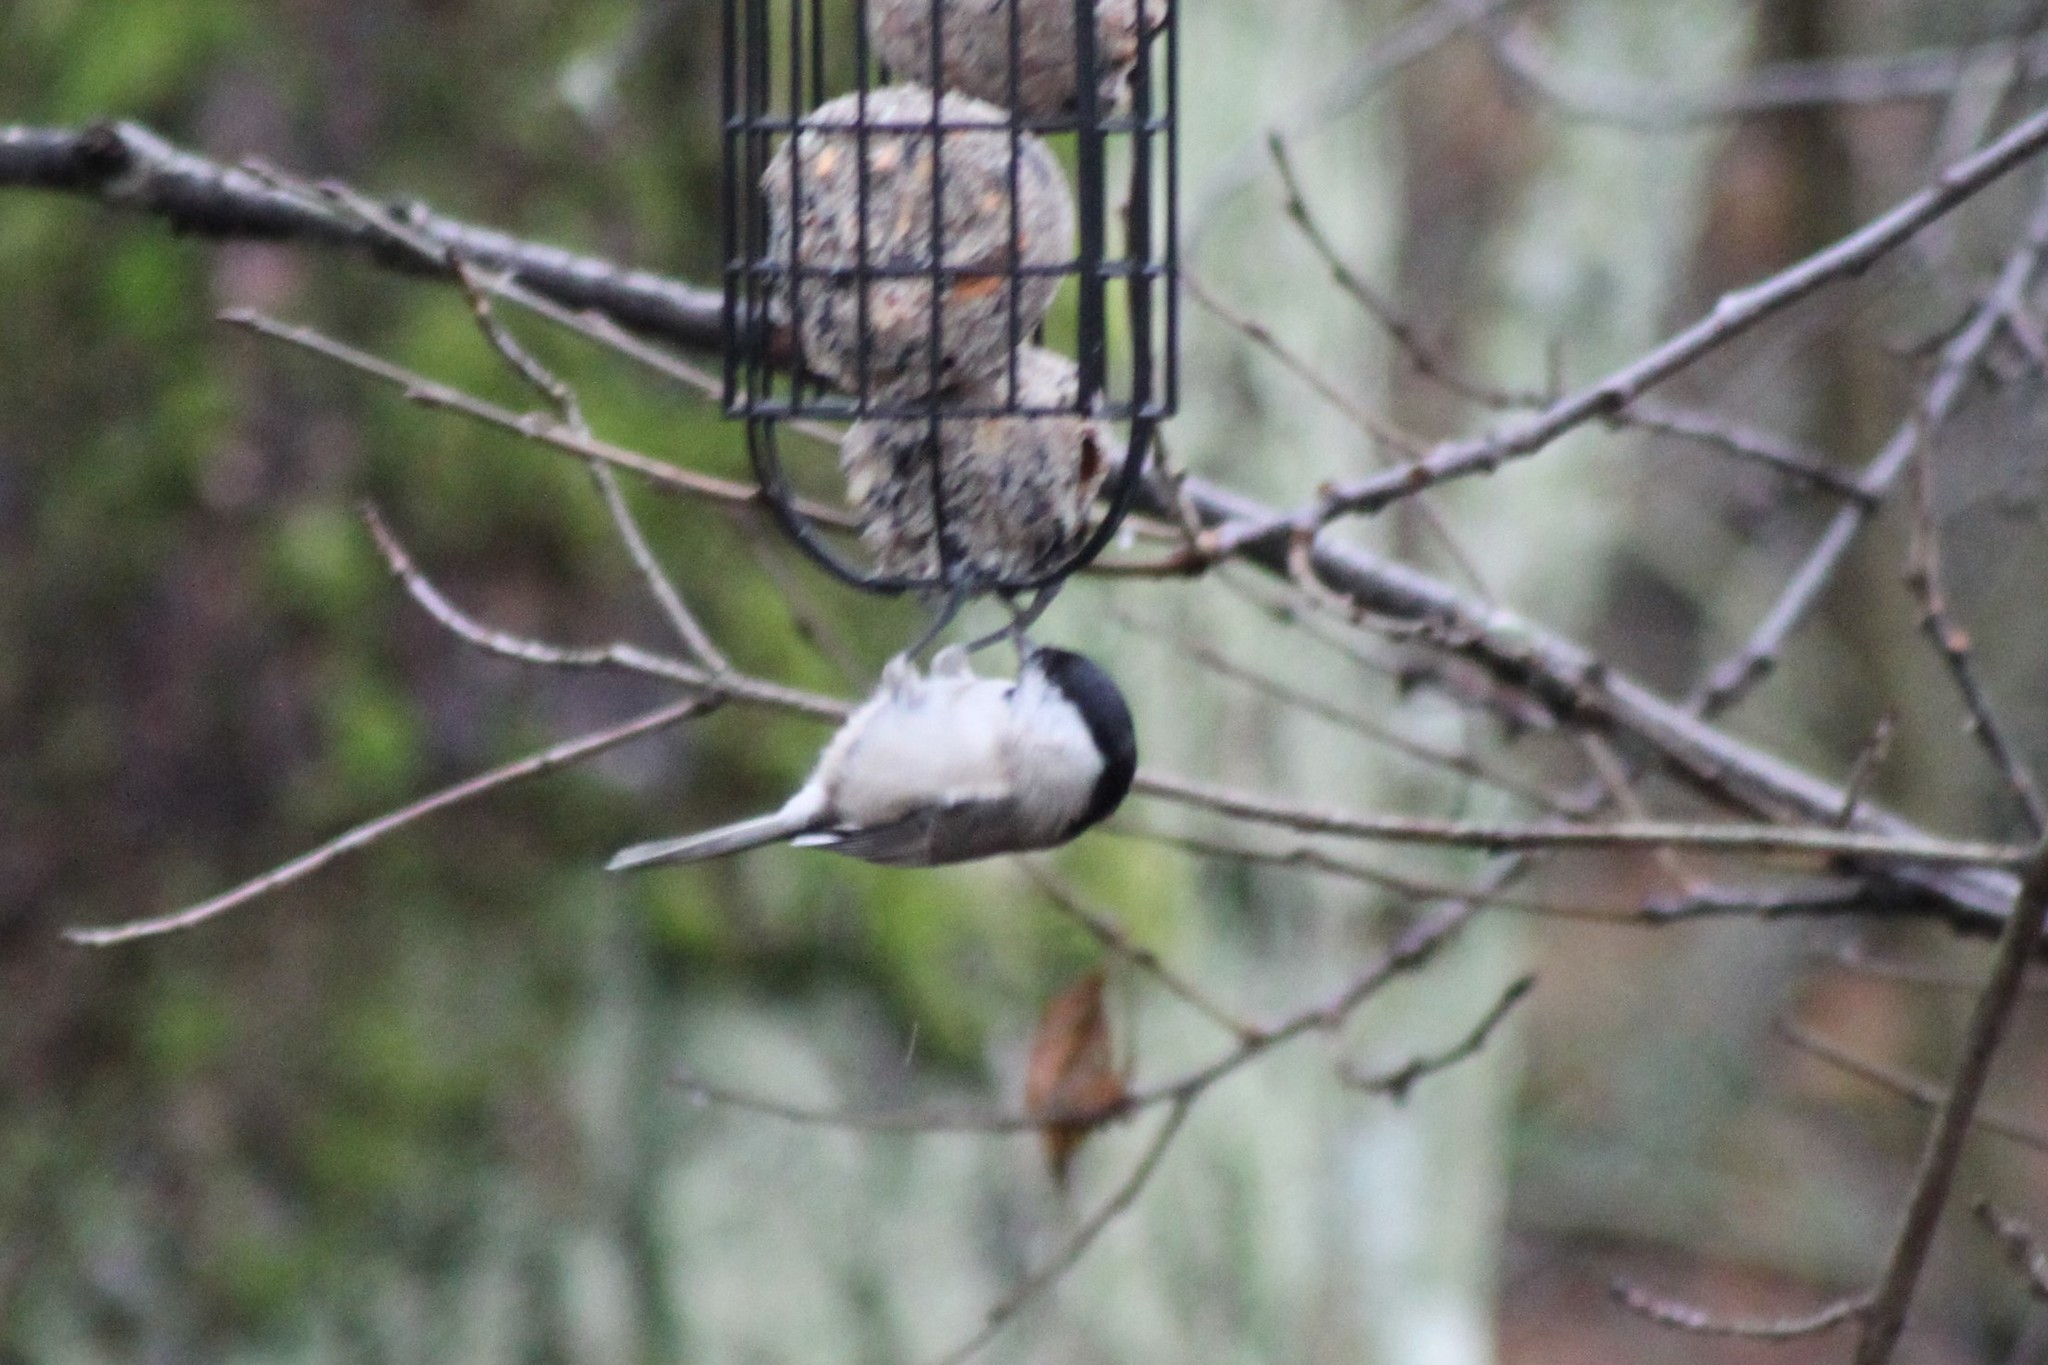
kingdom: Animalia
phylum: Chordata
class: Aves
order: Passeriformes
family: Paridae
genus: Poecile
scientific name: Poecile montanus
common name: Willow tit
